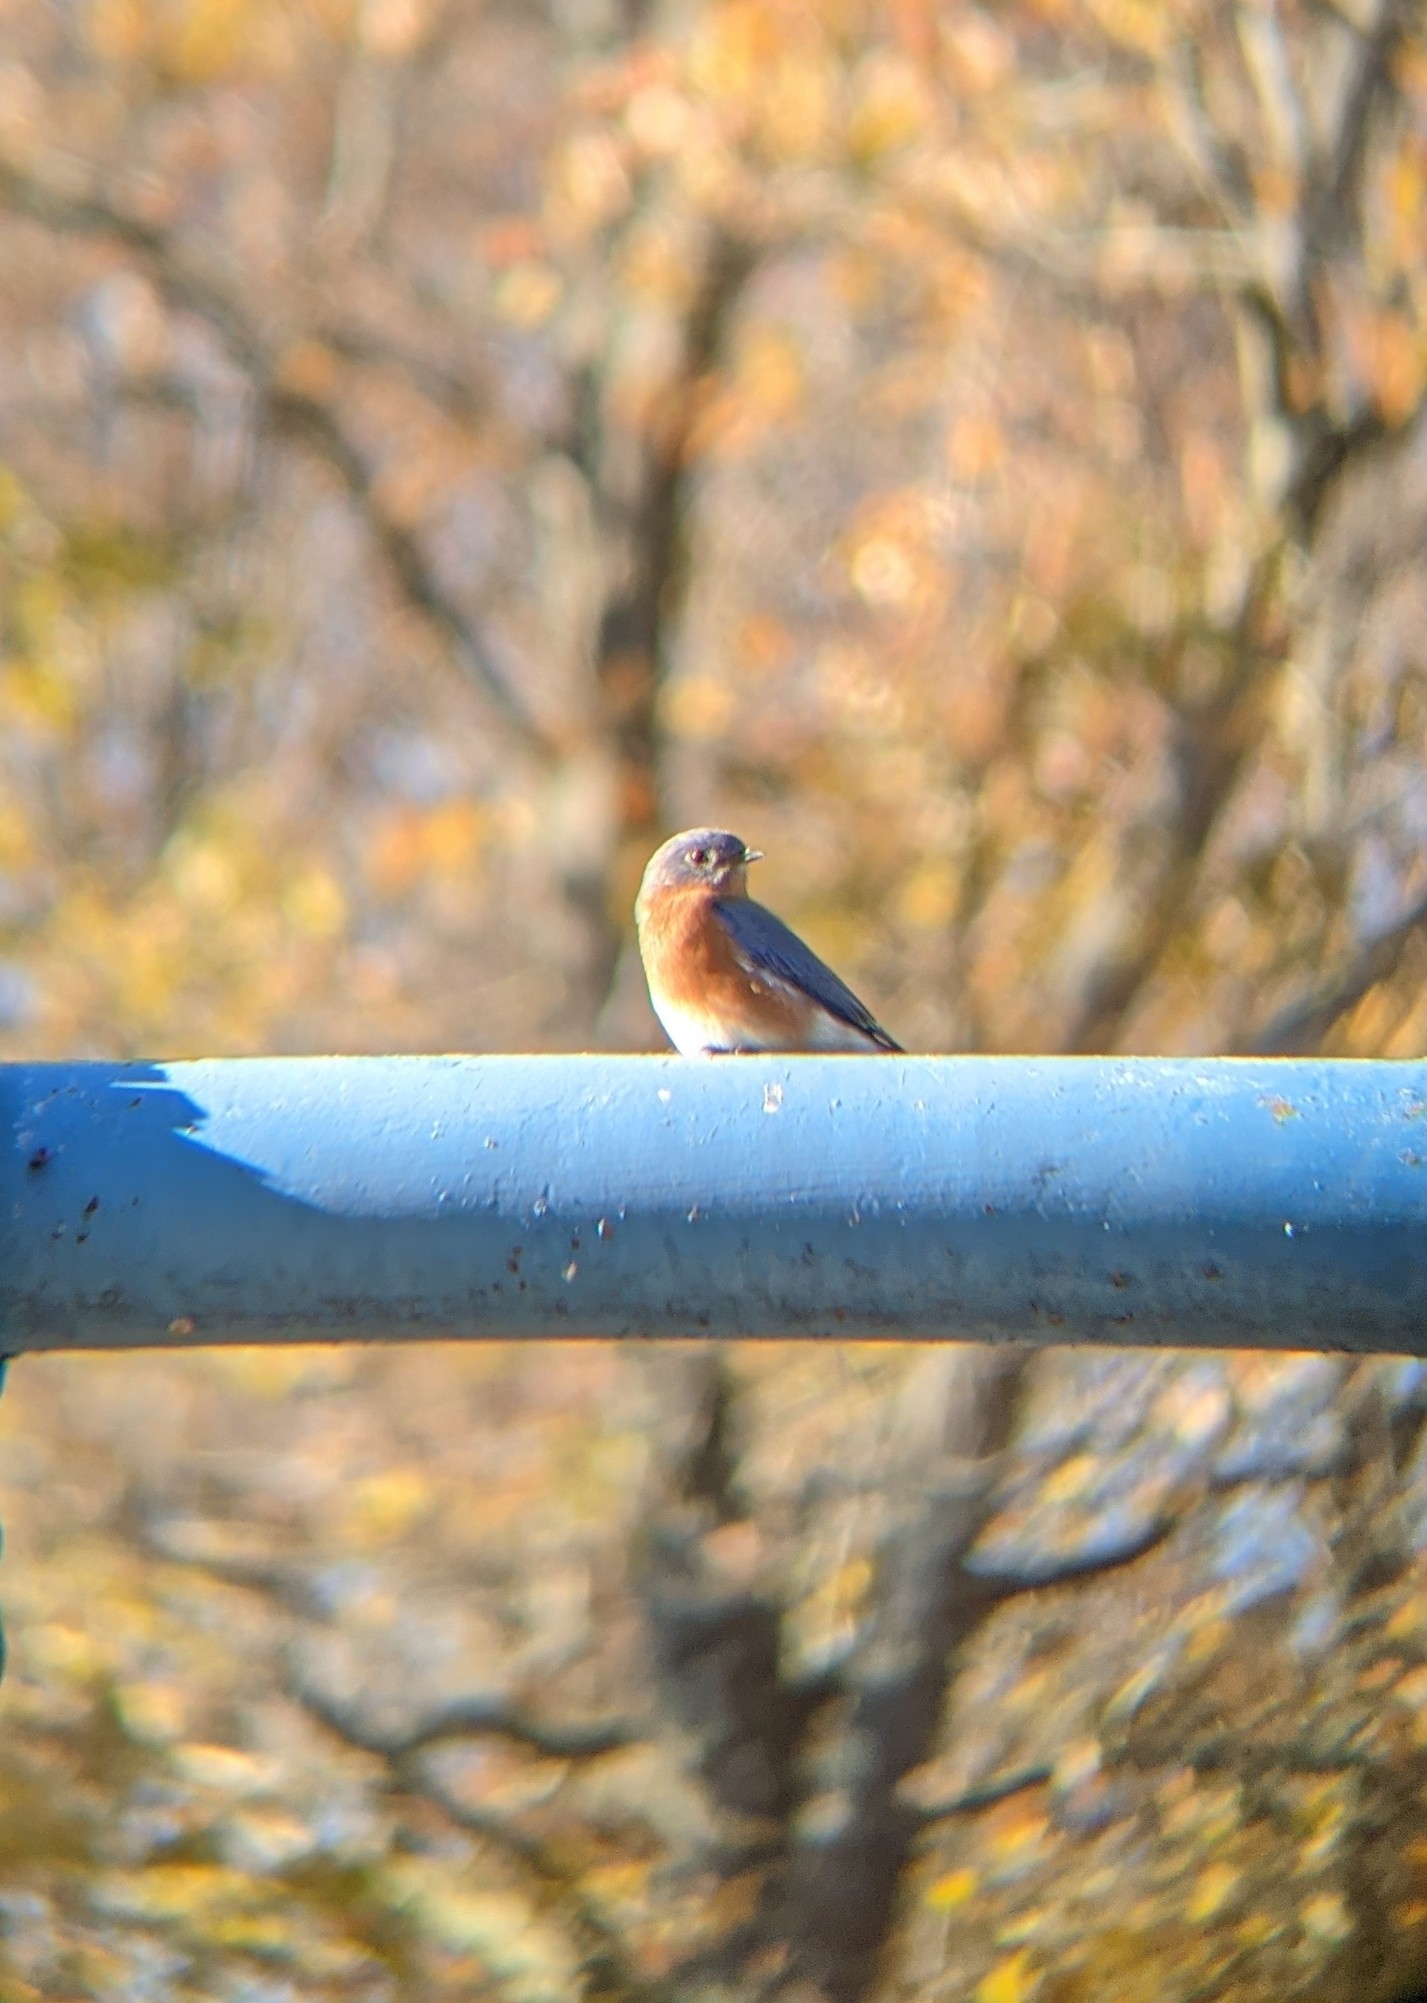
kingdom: Animalia
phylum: Chordata
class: Aves
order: Passeriformes
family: Turdidae
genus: Sialia
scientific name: Sialia sialis
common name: Eastern bluebird
